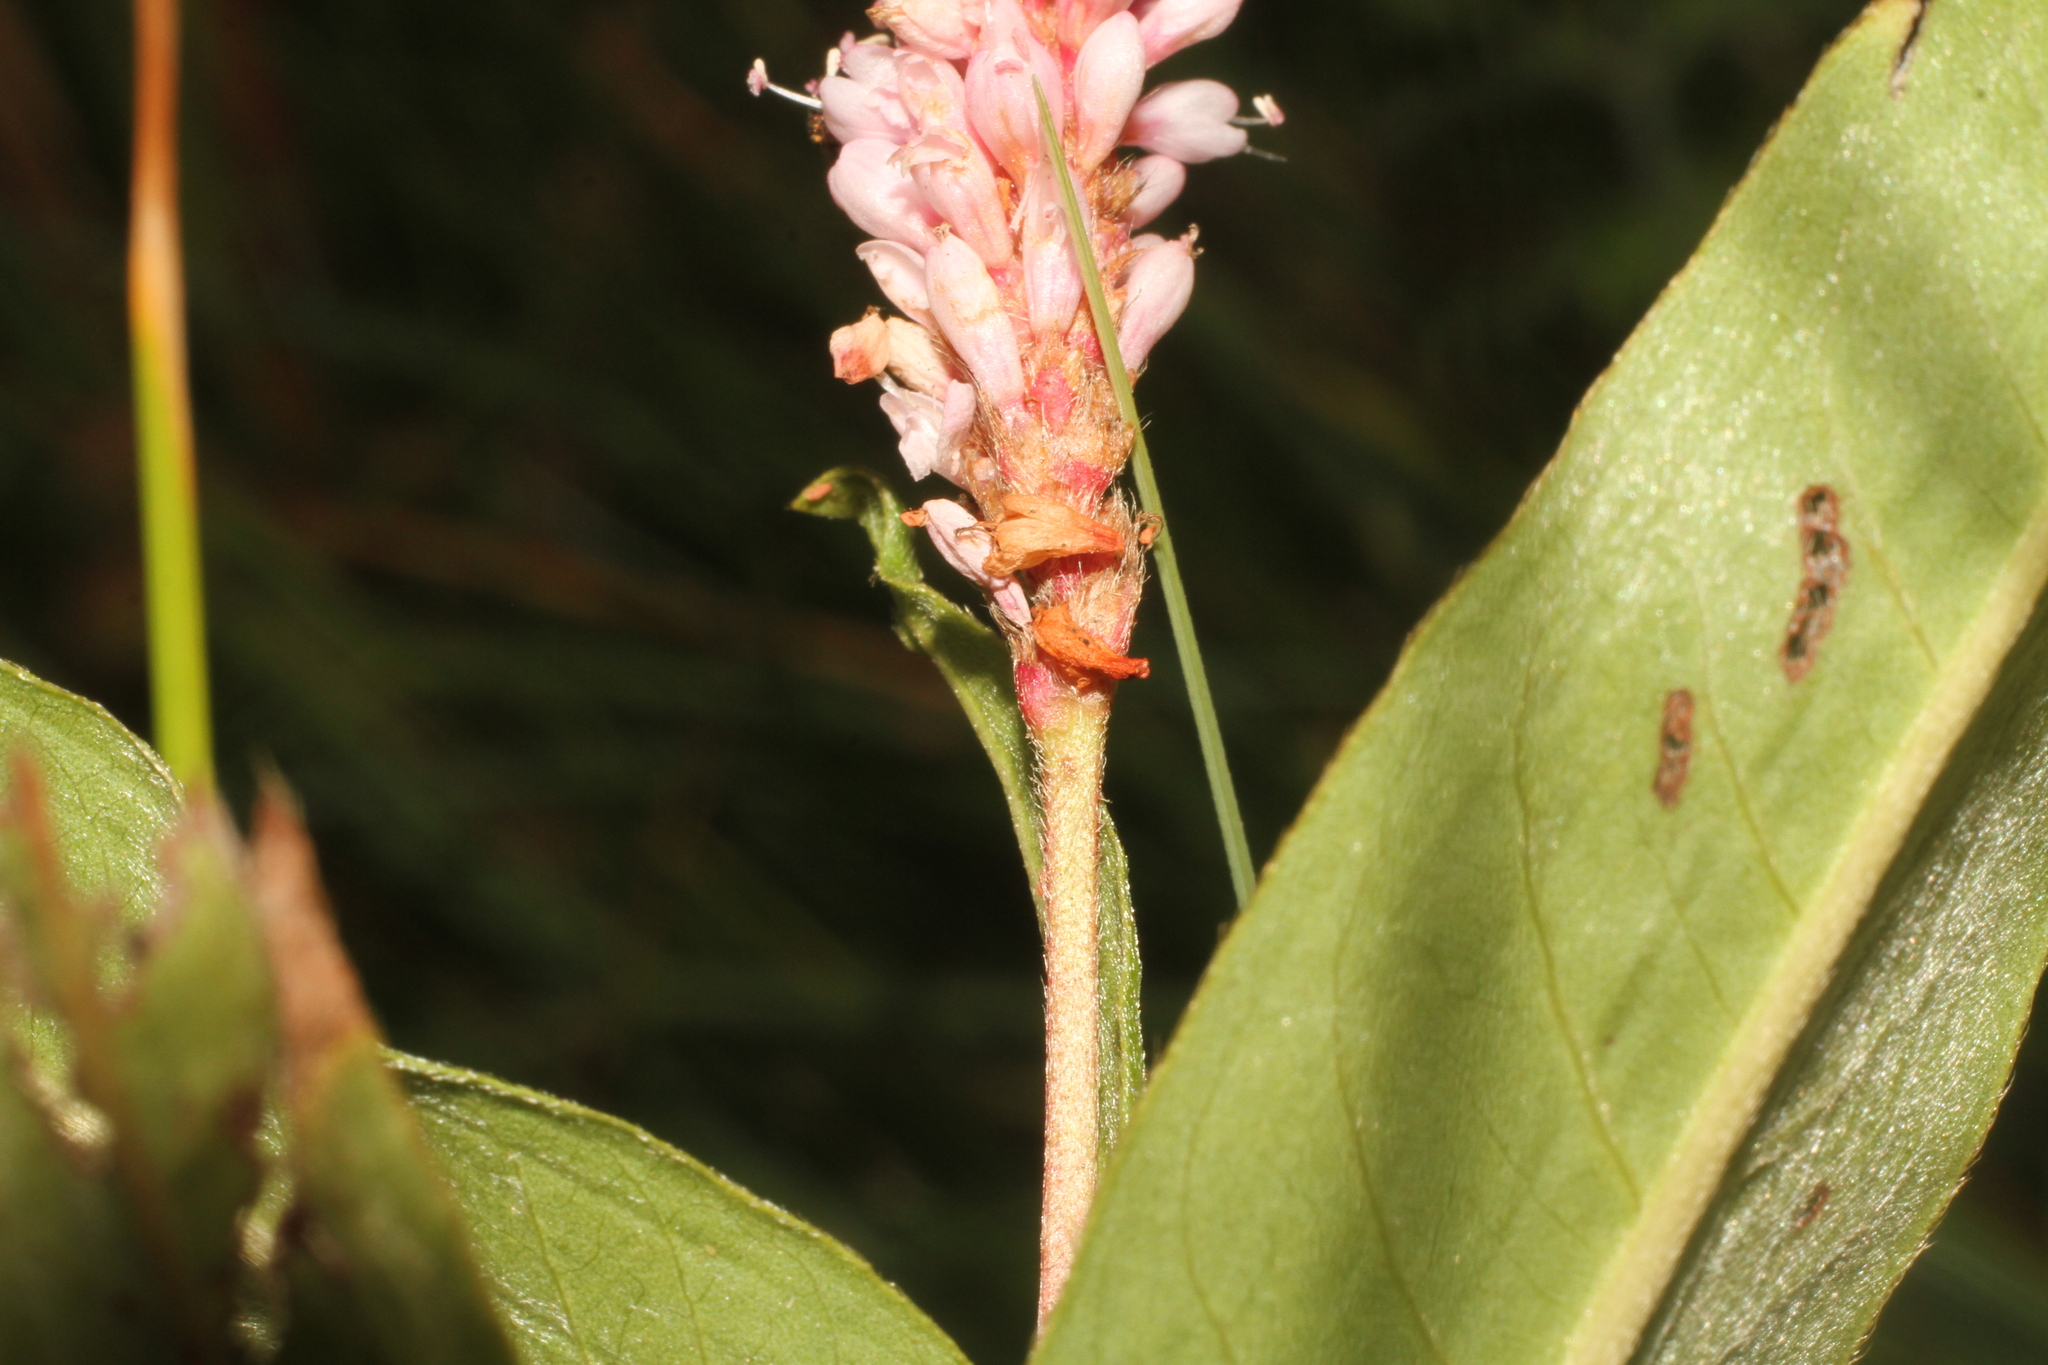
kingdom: Plantae
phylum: Tracheophyta
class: Magnoliopsida
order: Caryophyllales
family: Polygonaceae
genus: Persicaria
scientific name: Persicaria amphibia
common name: Amphibious bistort
